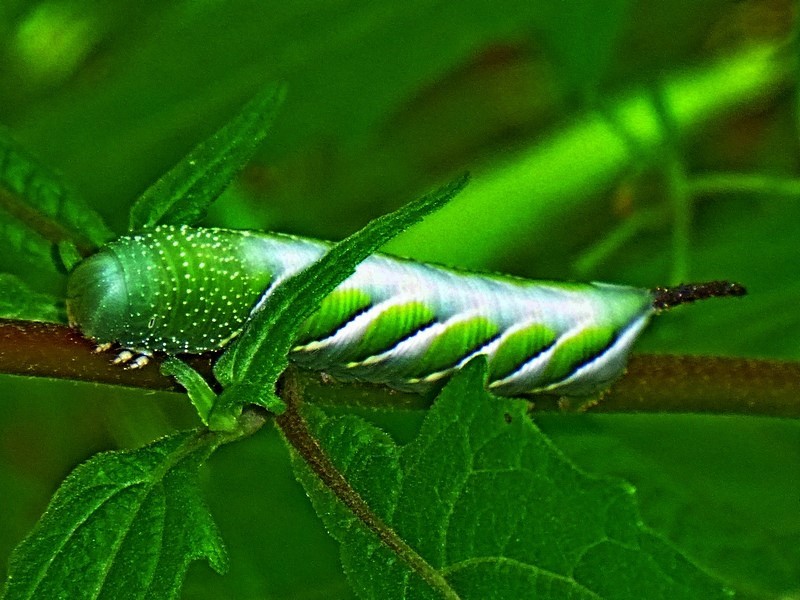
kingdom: Animalia
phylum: Arthropoda
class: Insecta
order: Lepidoptera
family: Sphingidae
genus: Psilogramma
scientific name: Psilogramma casuarinae
